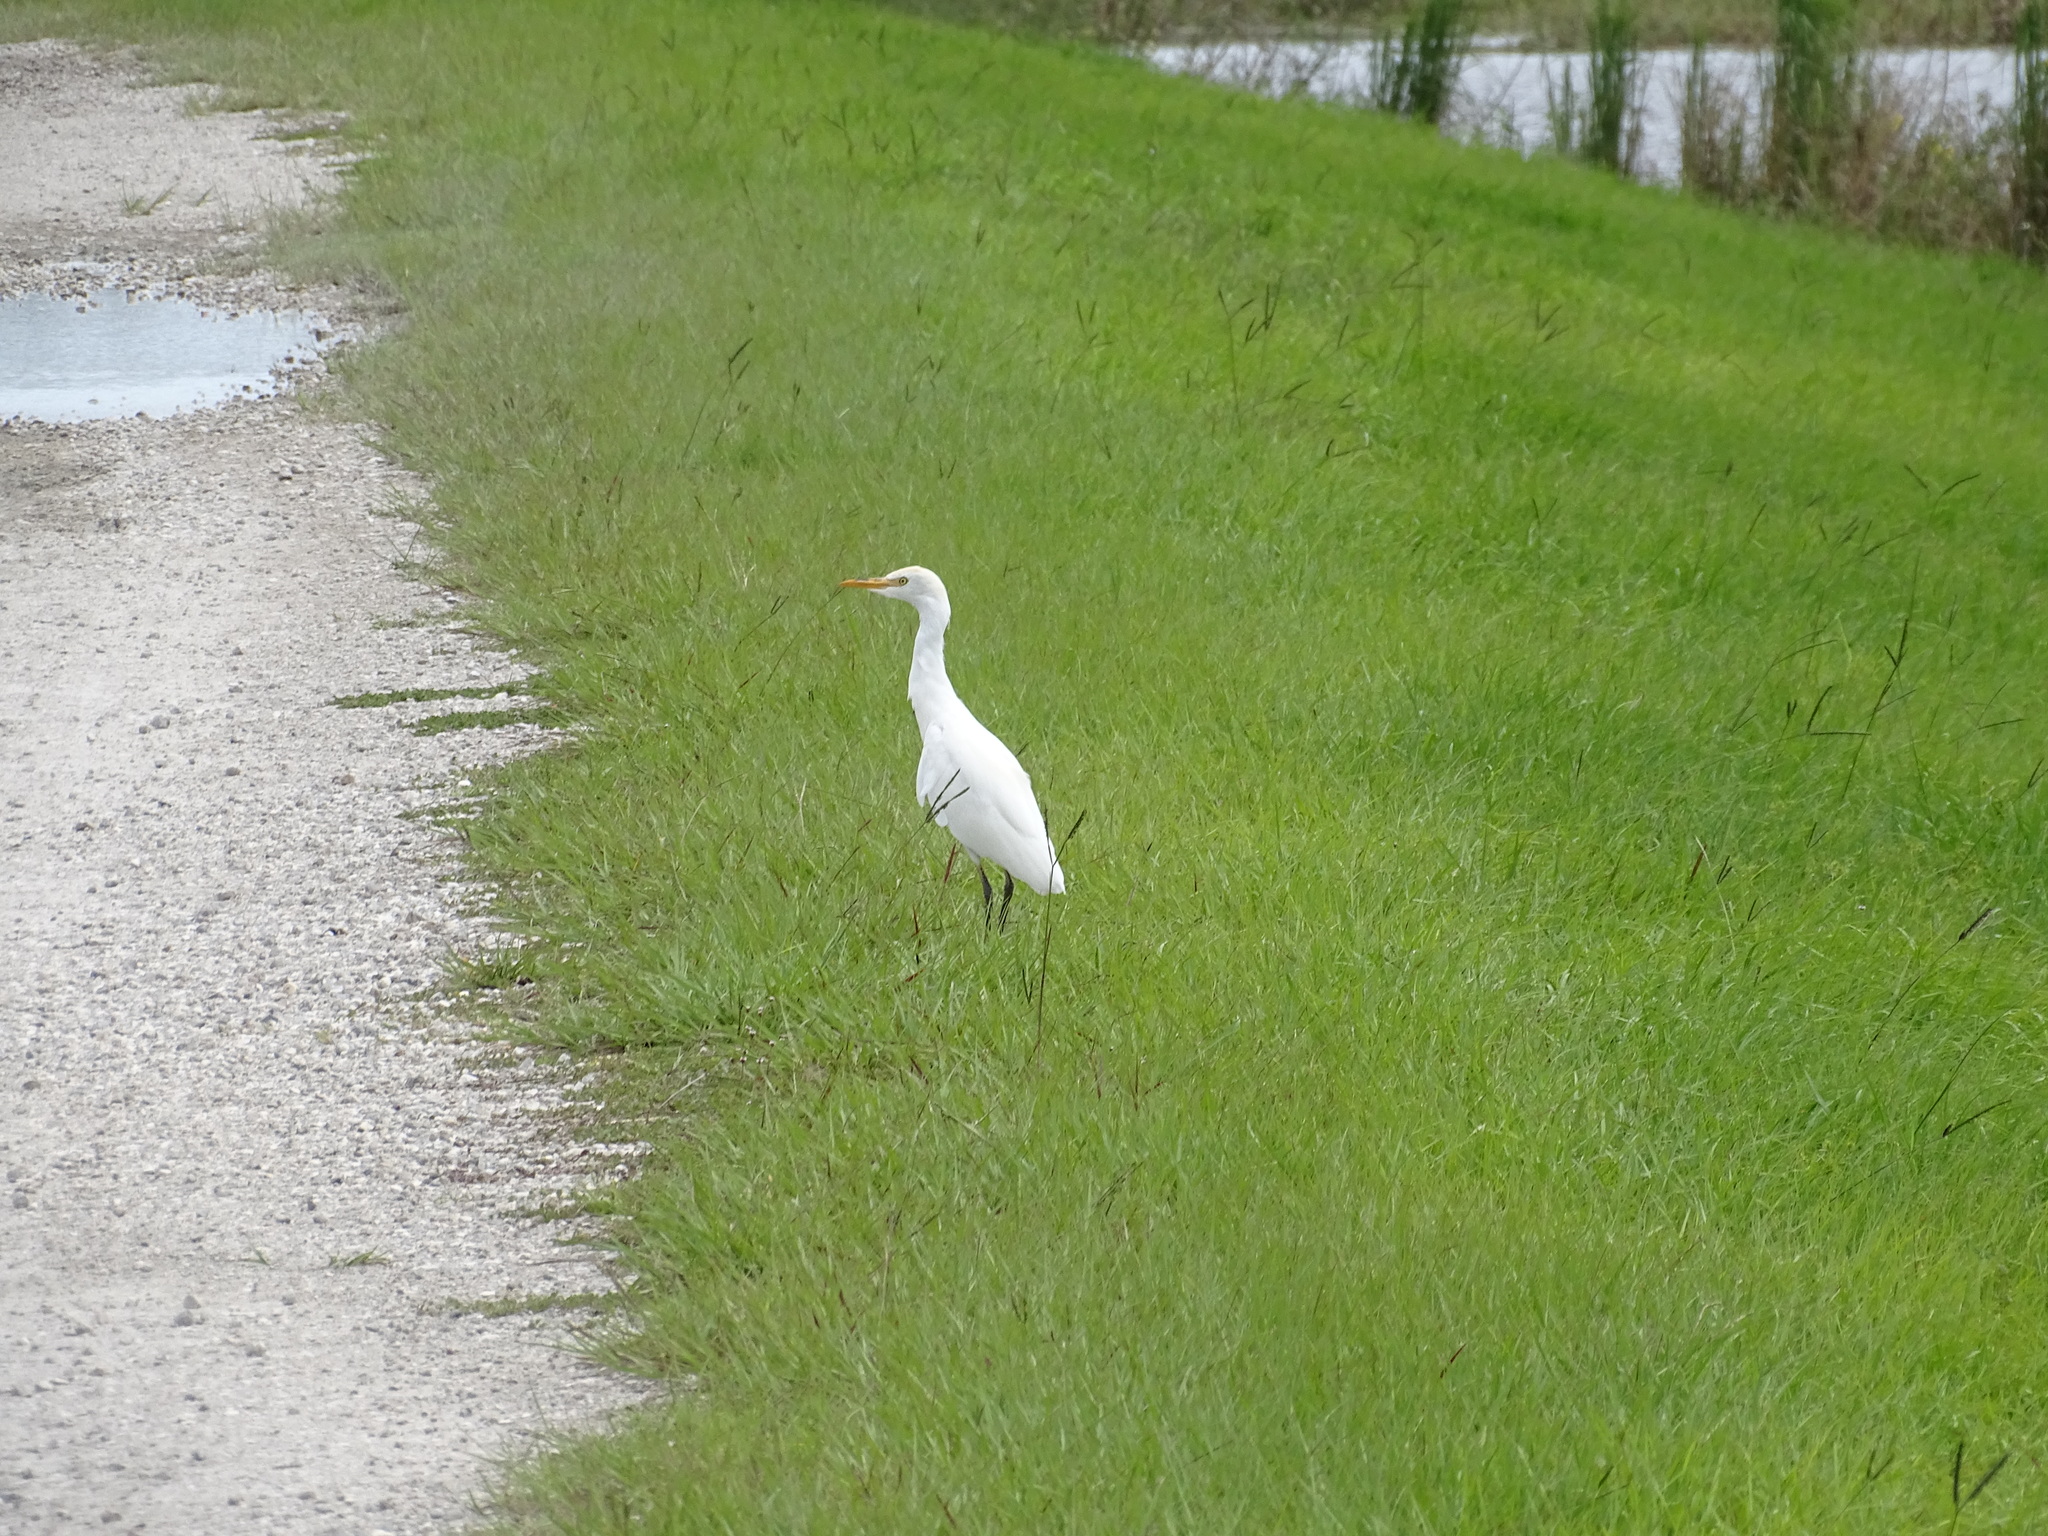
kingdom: Animalia
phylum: Chordata
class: Aves
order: Pelecaniformes
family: Ardeidae
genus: Bubulcus
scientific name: Bubulcus ibis
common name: Cattle egret
